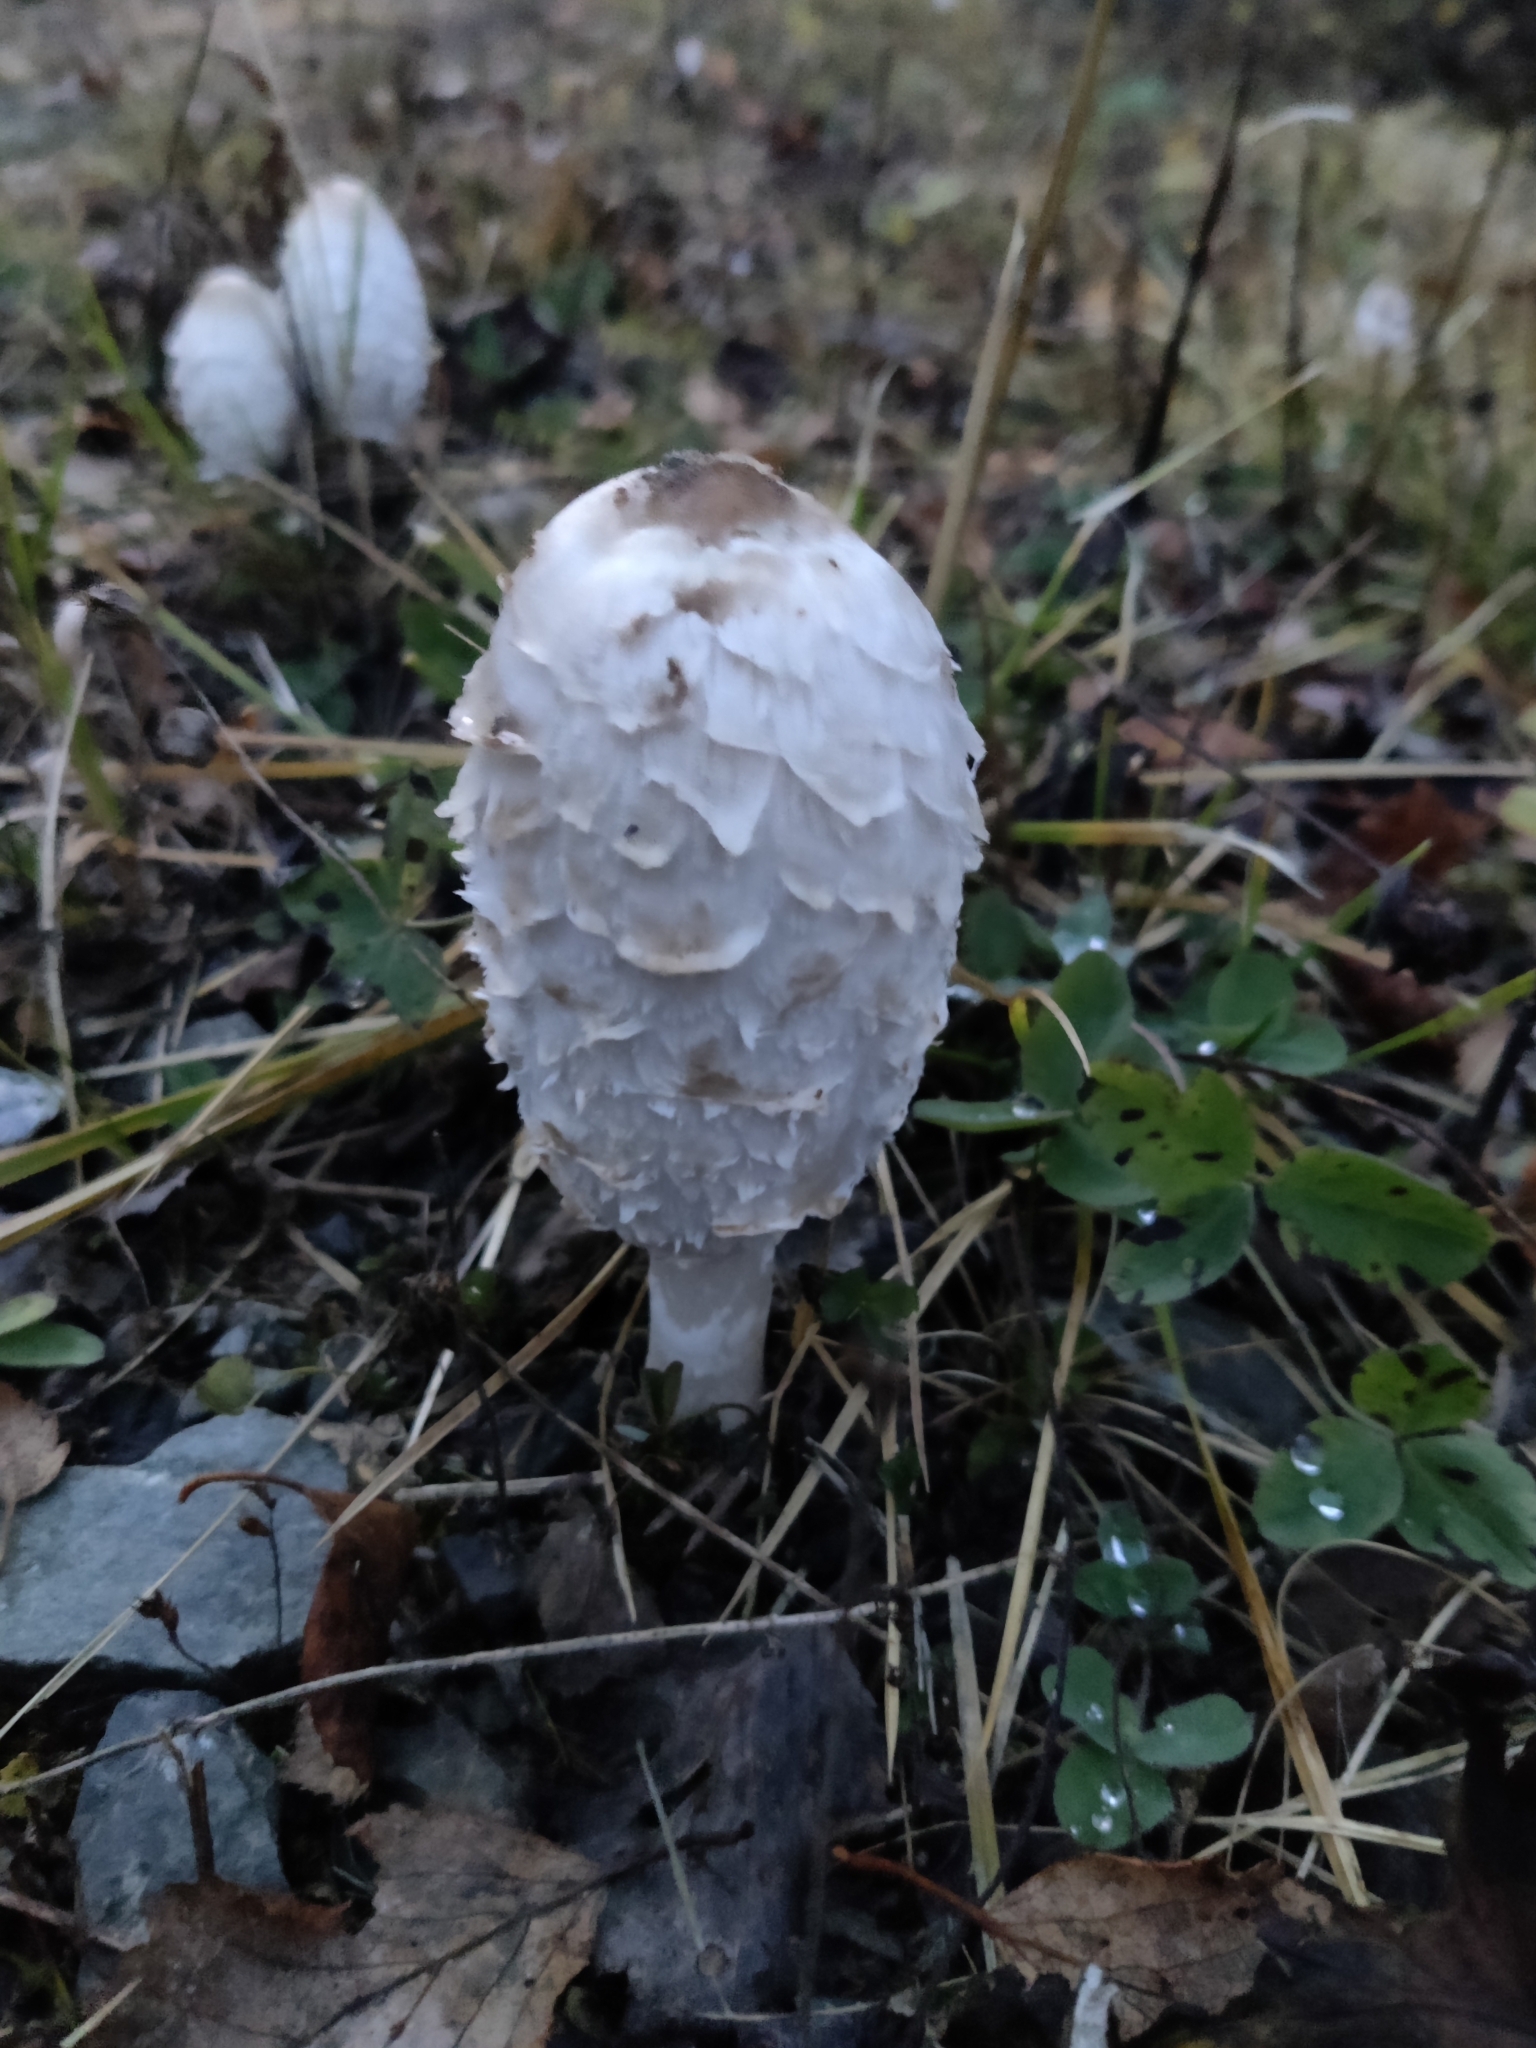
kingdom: Fungi
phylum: Basidiomycota
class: Agaricomycetes
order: Agaricales
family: Agaricaceae
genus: Coprinus
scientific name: Coprinus comatus
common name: Lawyer's wig
